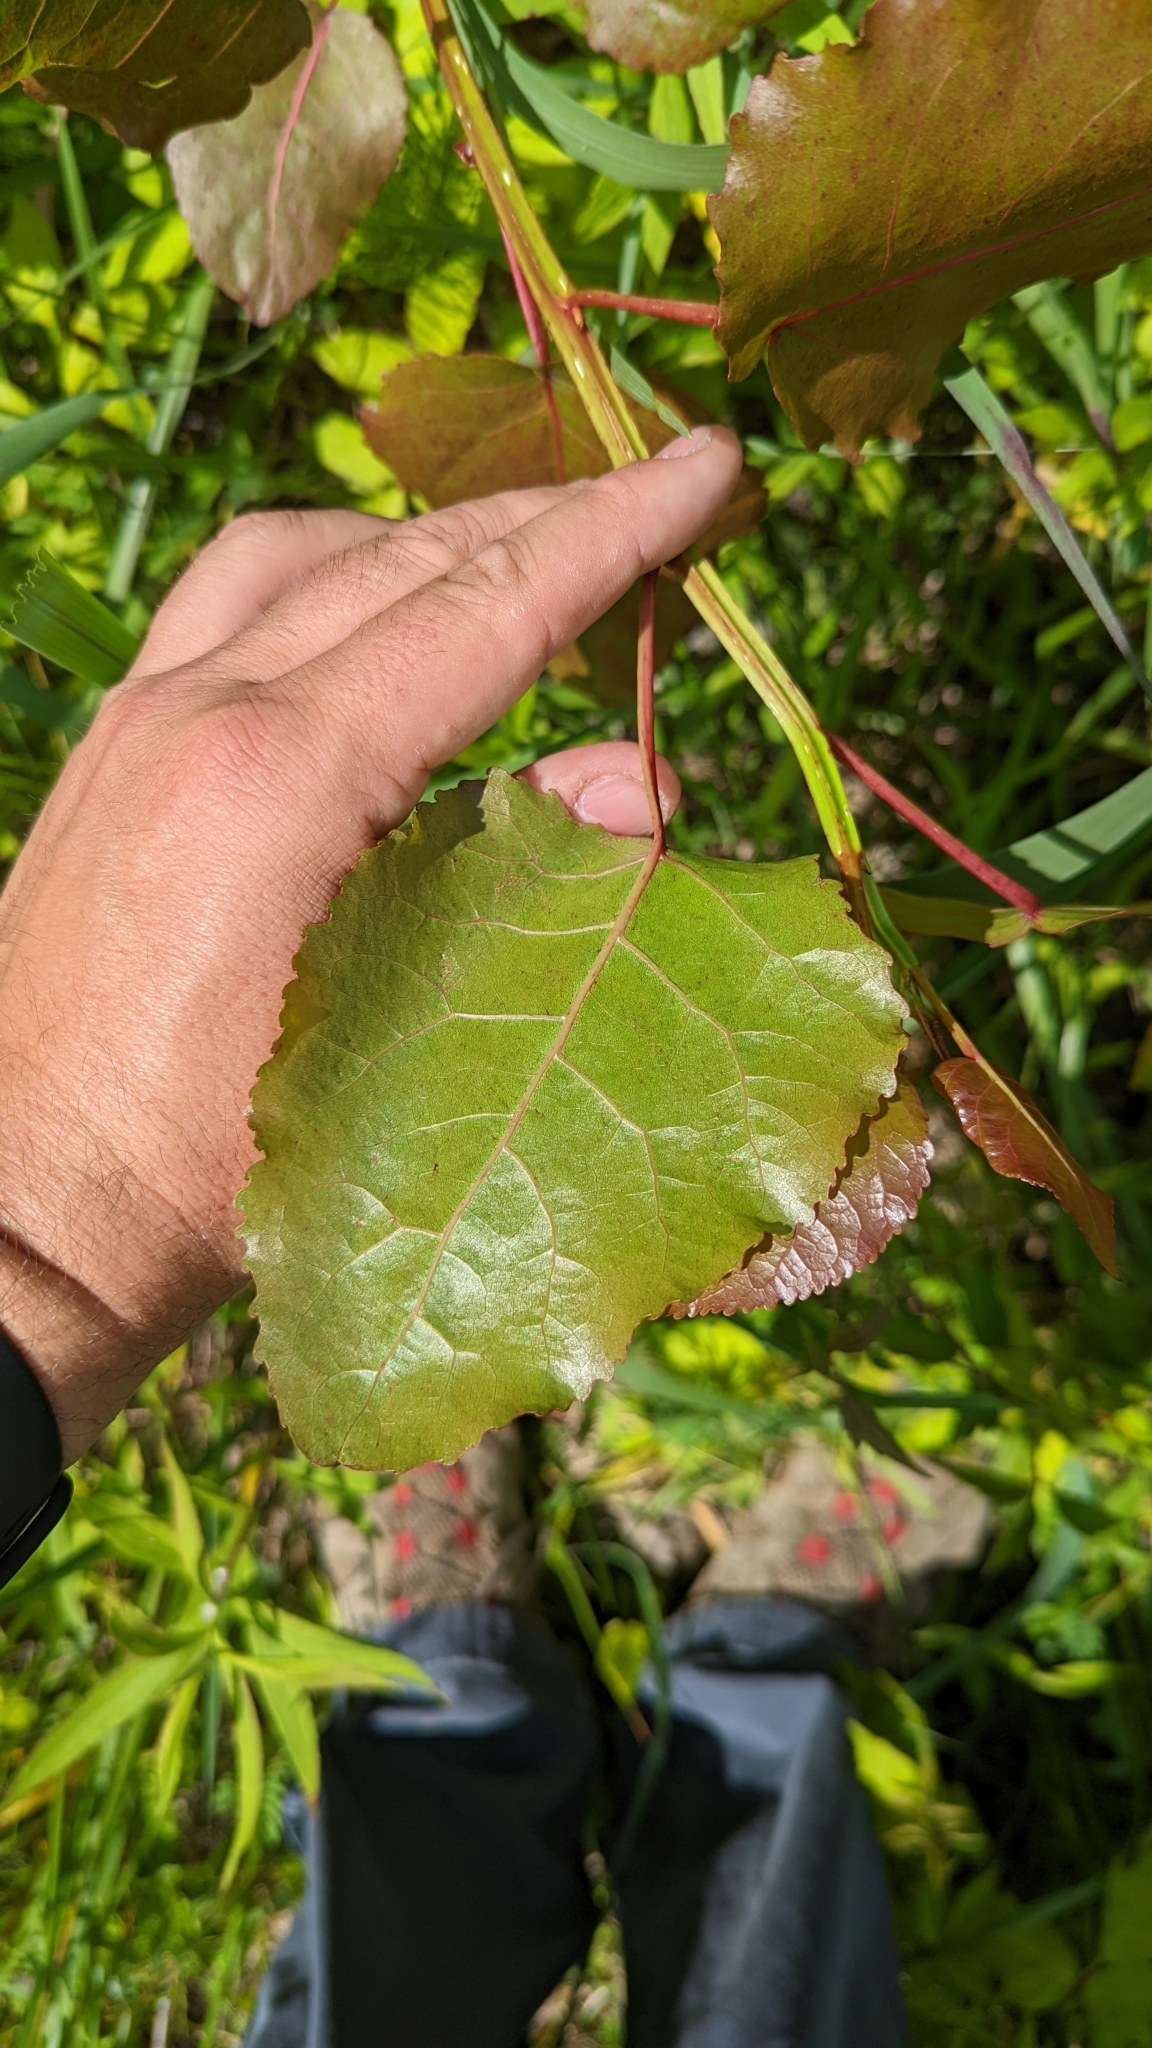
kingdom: Plantae
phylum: Tracheophyta
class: Magnoliopsida
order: Malpighiales
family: Salicaceae
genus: Populus
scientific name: Populus deltoides
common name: Eastern cottonwood
